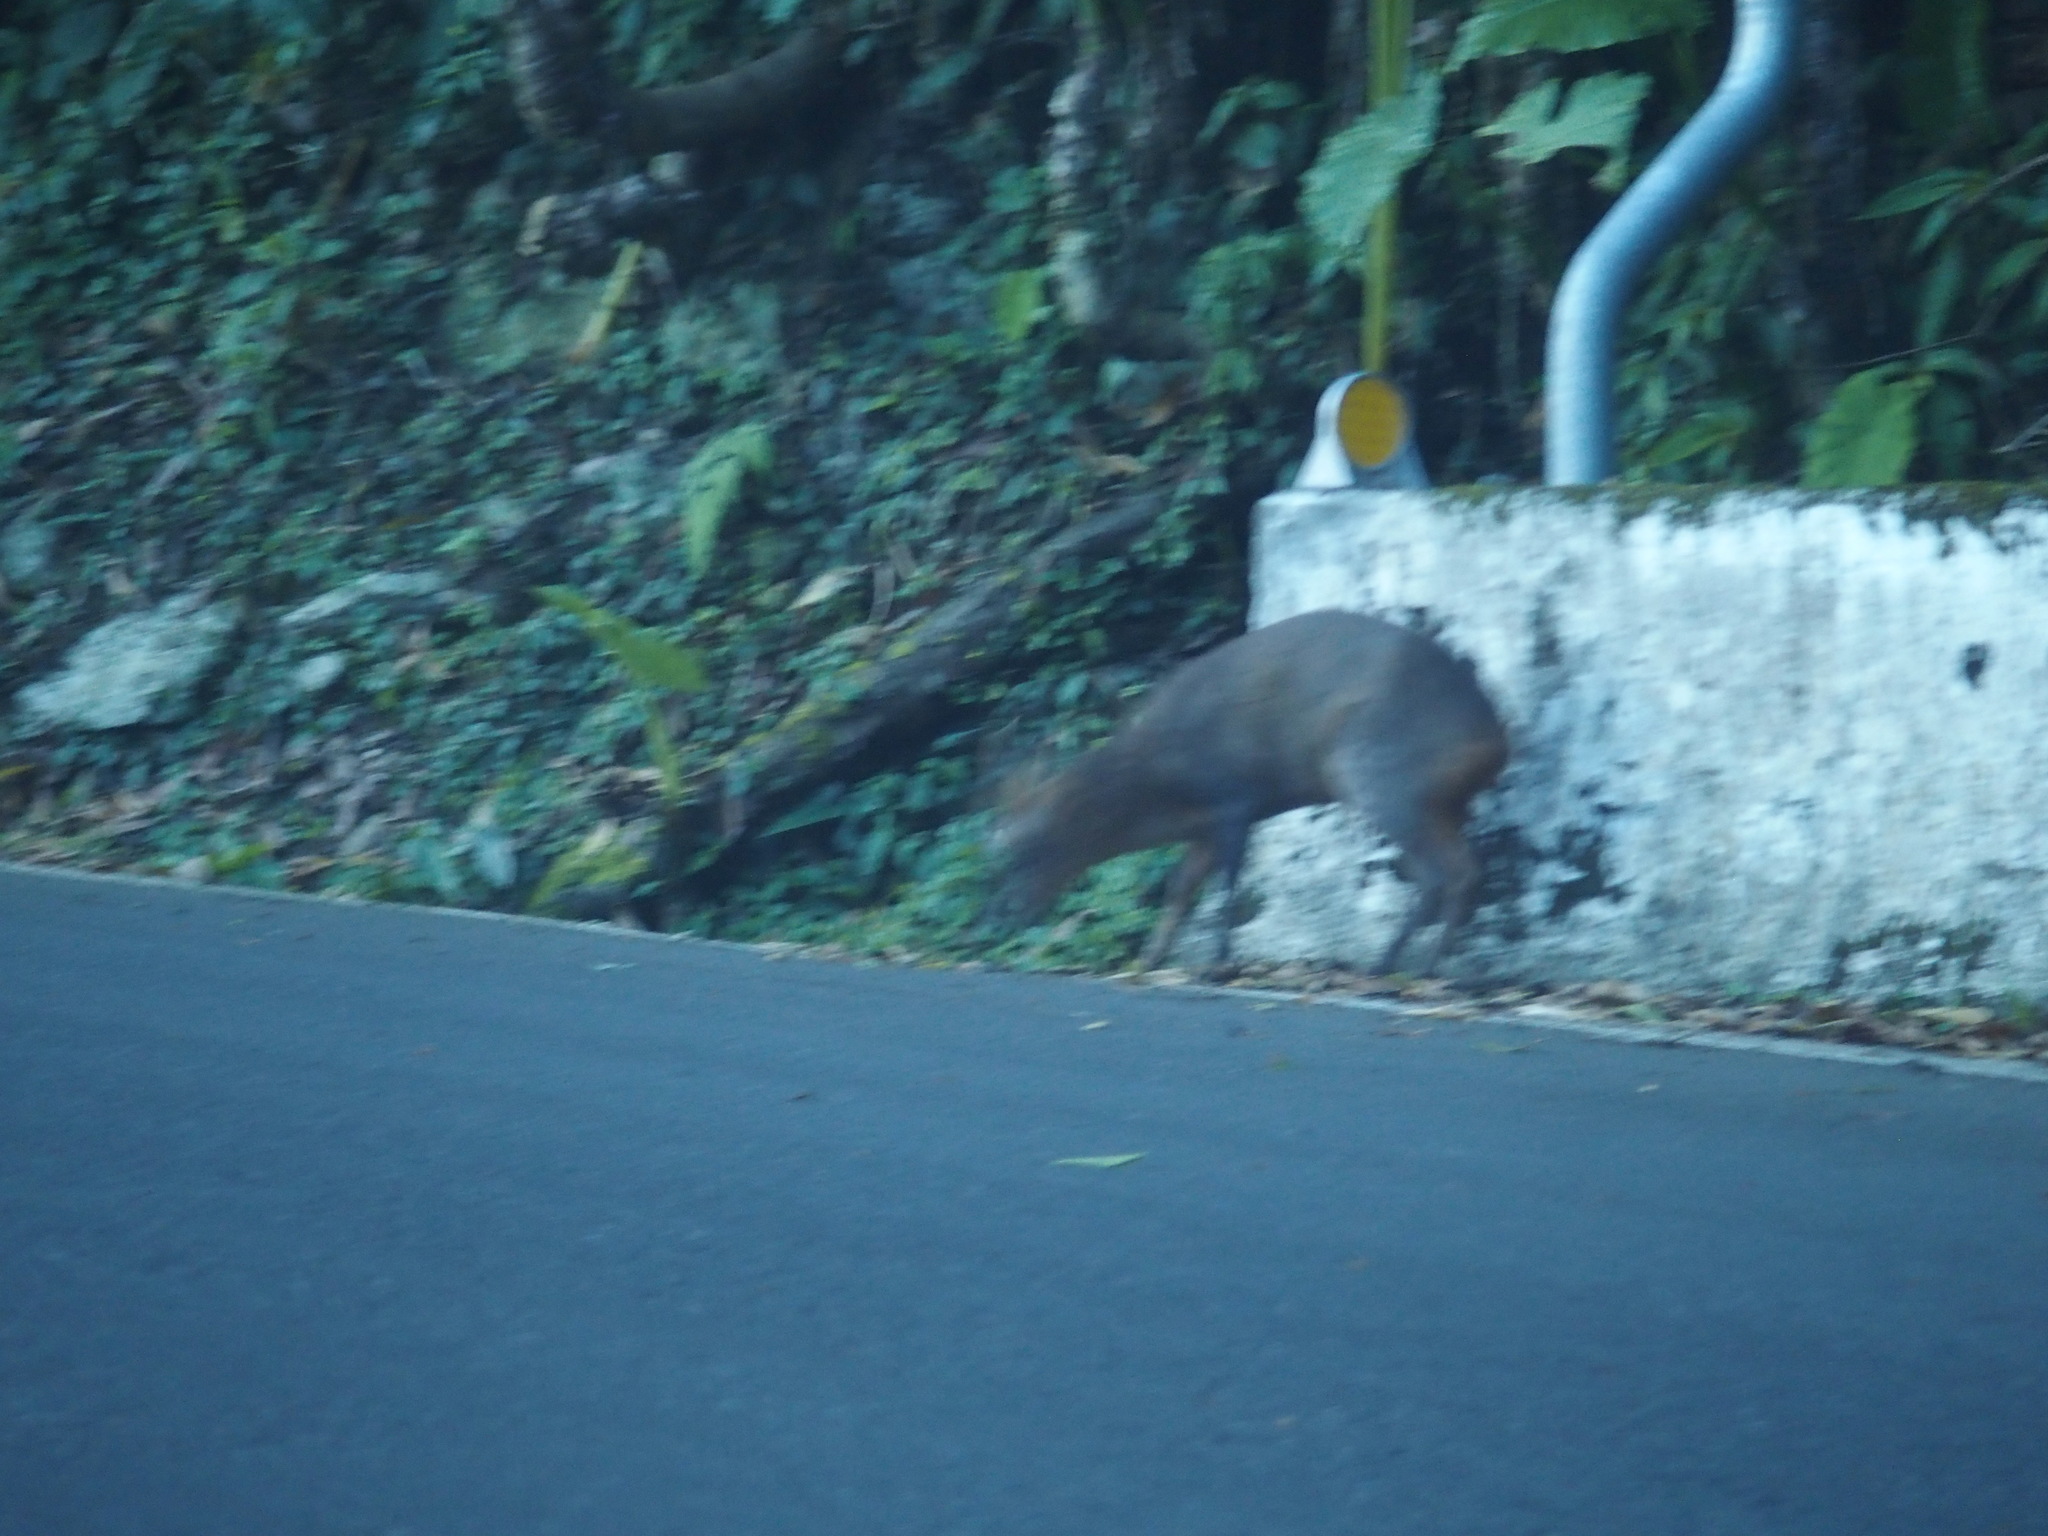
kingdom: Animalia
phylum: Chordata
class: Mammalia
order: Artiodactyla
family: Cervidae
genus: Muntiacus
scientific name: Muntiacus reevesi
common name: Reeves' muntjac
